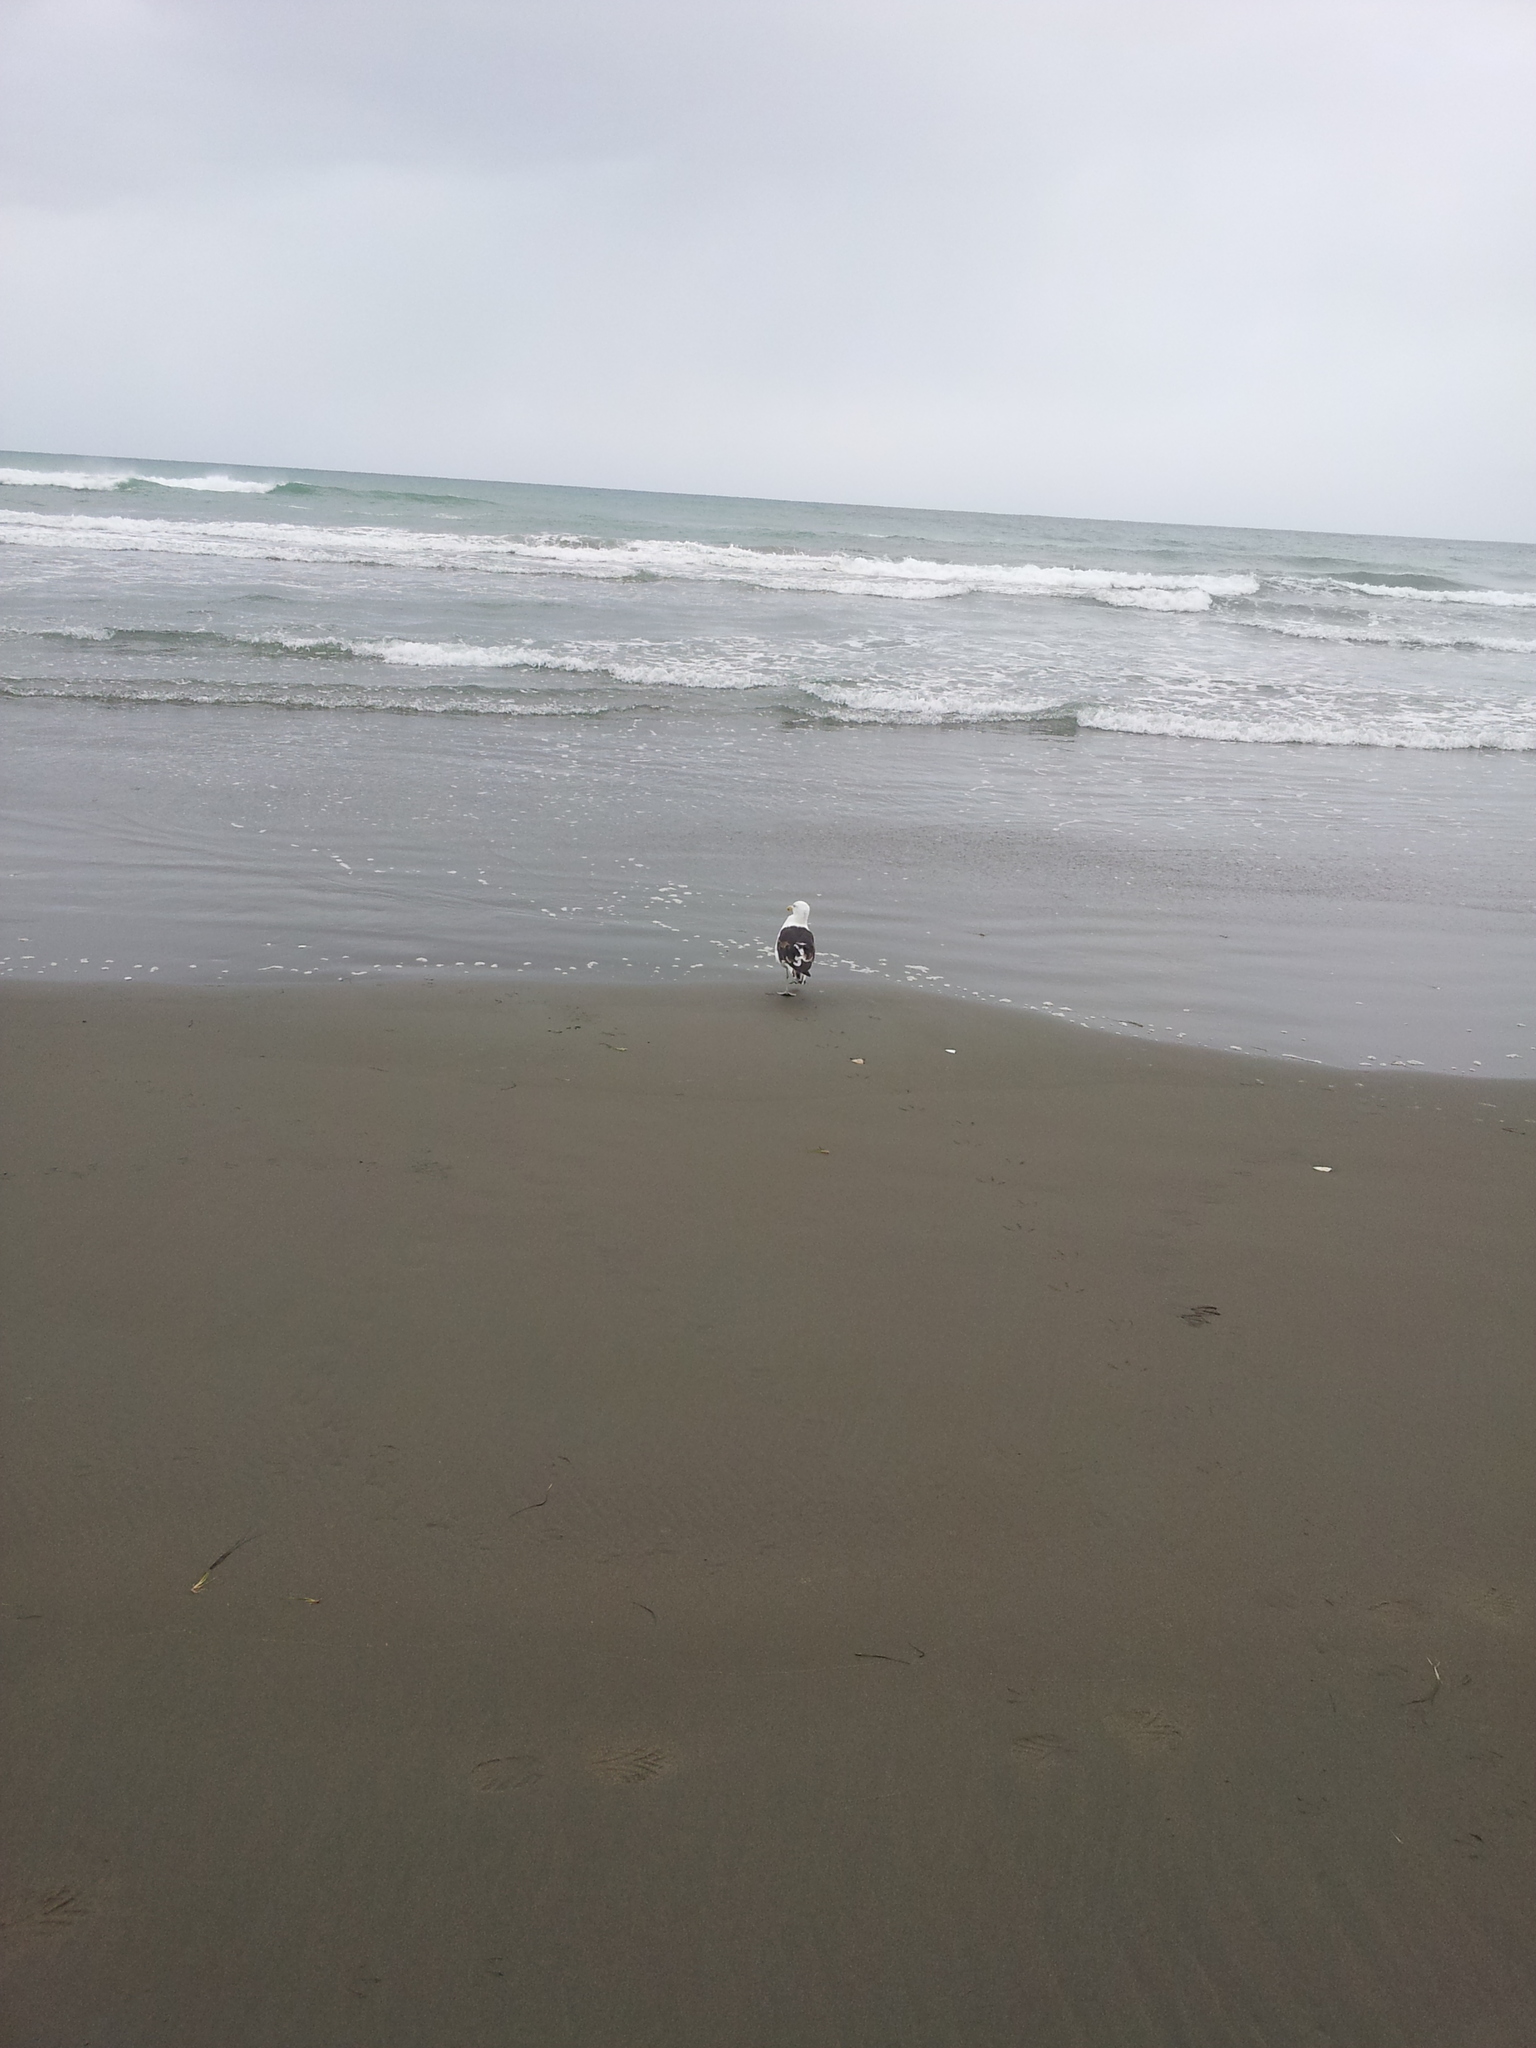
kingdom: Animalia
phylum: Chordata
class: Aves
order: Charadriiformes
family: Laridae
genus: Larus
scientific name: Larus dominicanus
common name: Kelp gull
